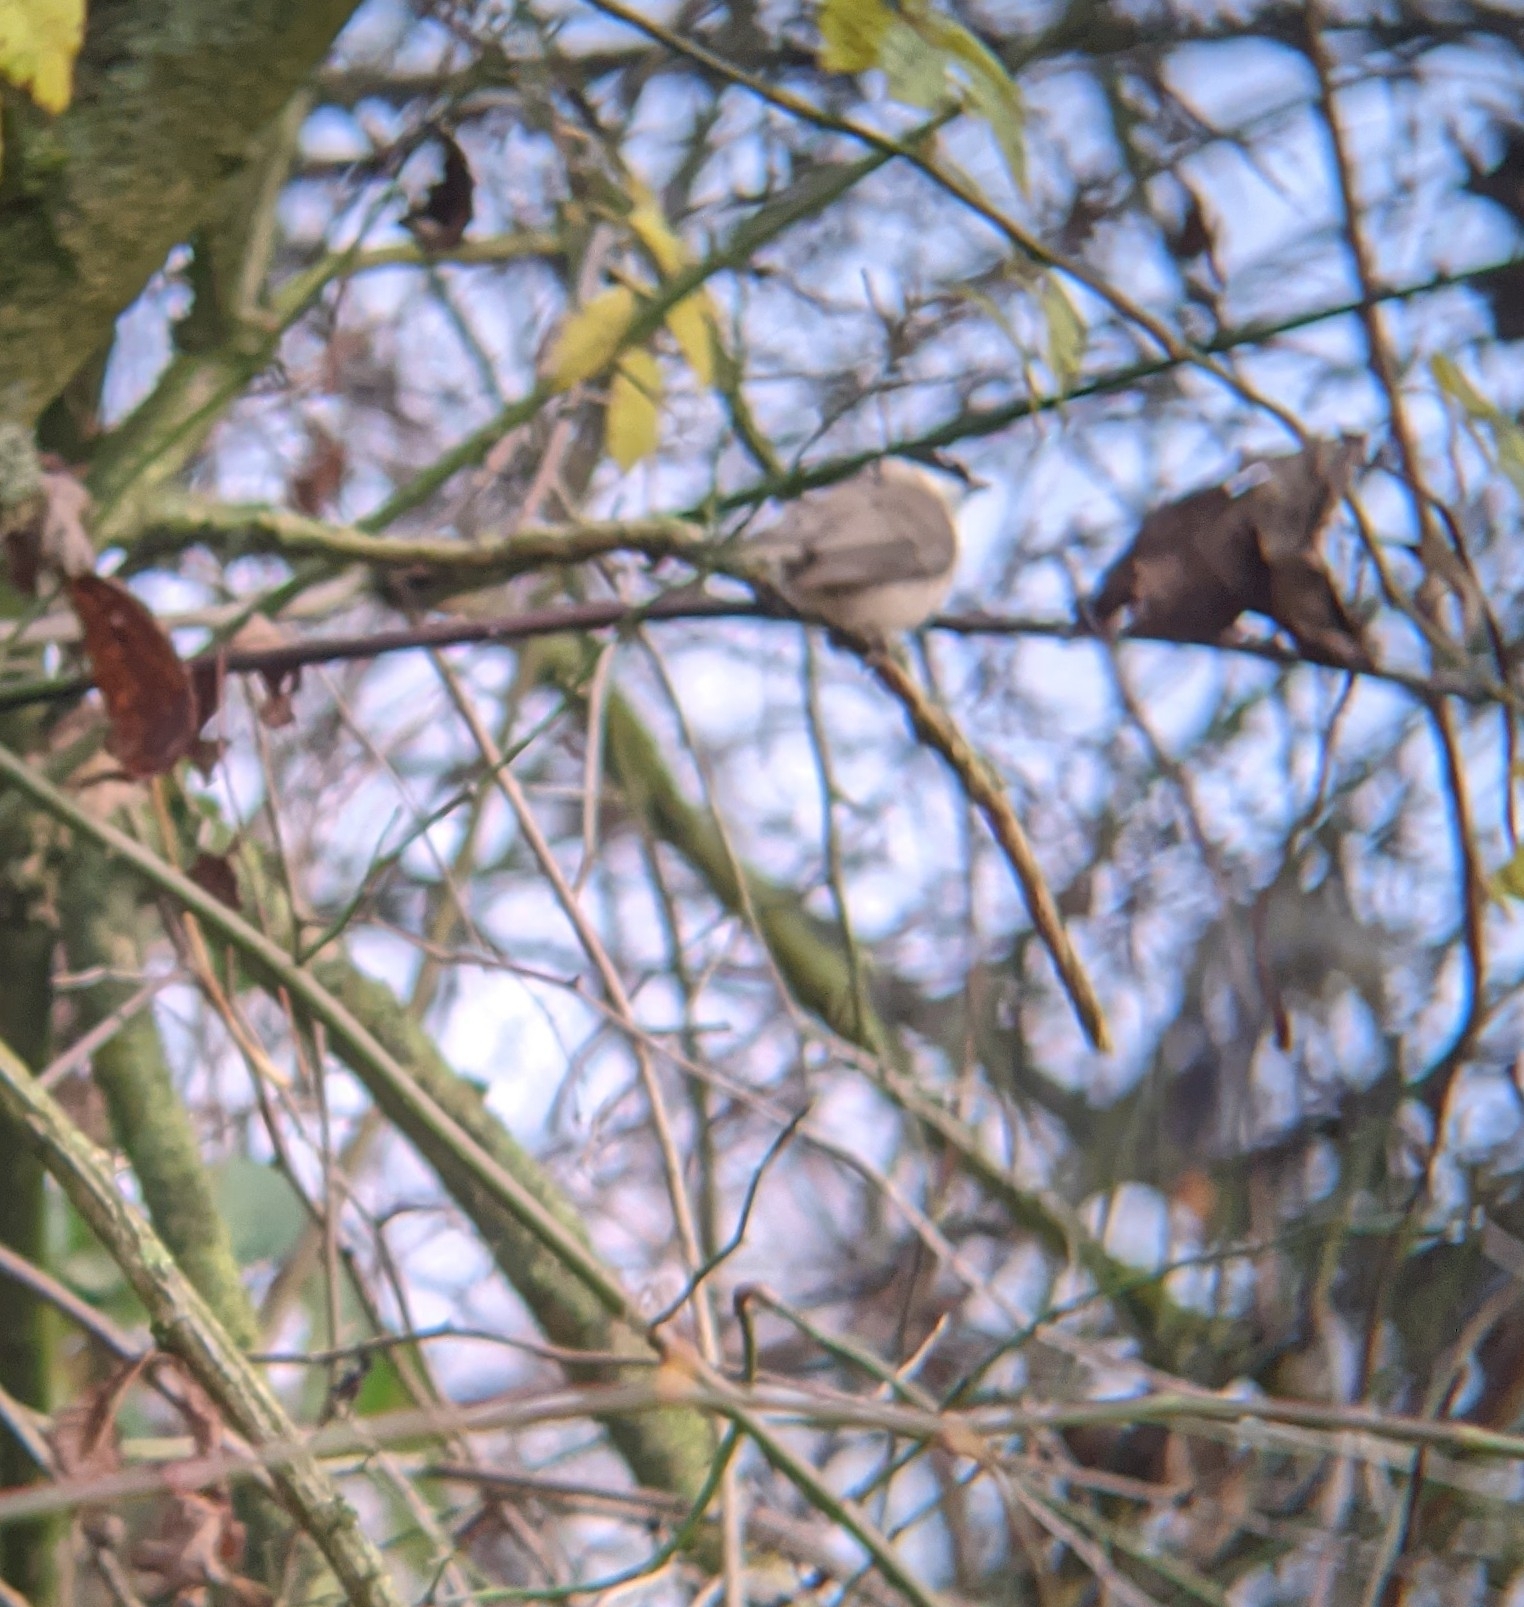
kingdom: Animalia
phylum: Chordata
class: Aves
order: Passeriformes
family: Paridae
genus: Poecile
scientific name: Poecile palustris
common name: Marsh tit
